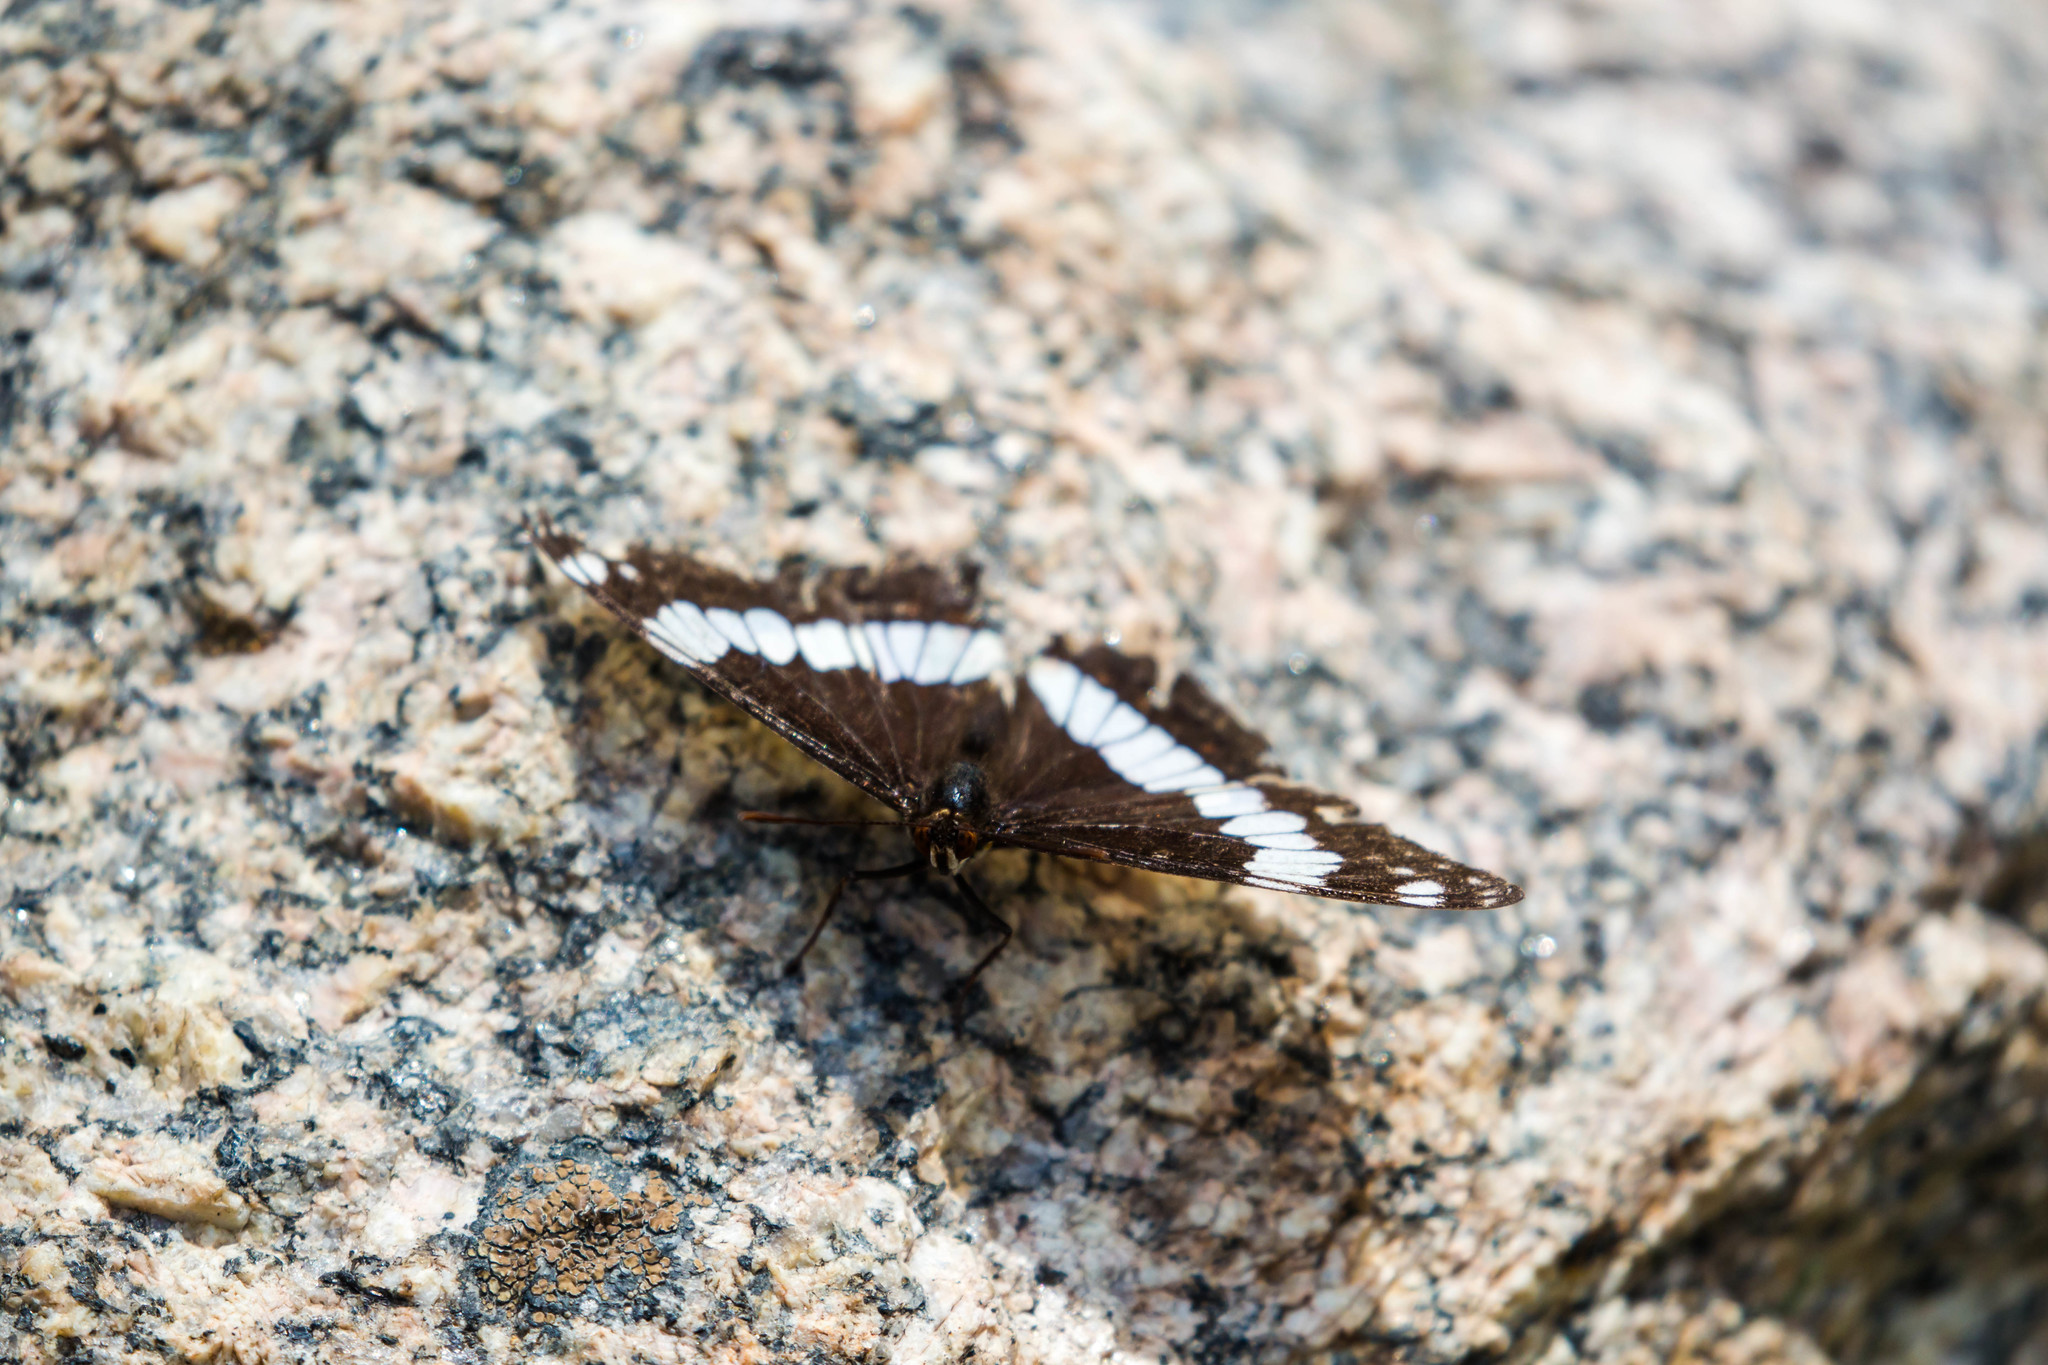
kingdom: Animalia
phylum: Arthropoda
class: Insecta
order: Lepidoptera
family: Nymphalidae
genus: Limenitis
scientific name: Limenitis weidemeyerii
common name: Weidemeyer's admiral
